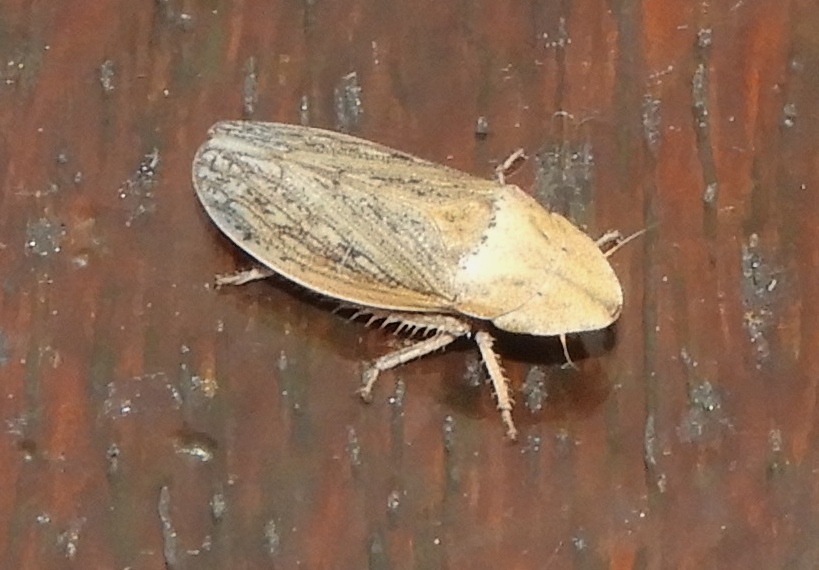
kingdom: Animalia
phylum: Arthropoda
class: Insecta
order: Hemiptera
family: Cicadellidae
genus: Prairiana
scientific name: Prairiana sidana
